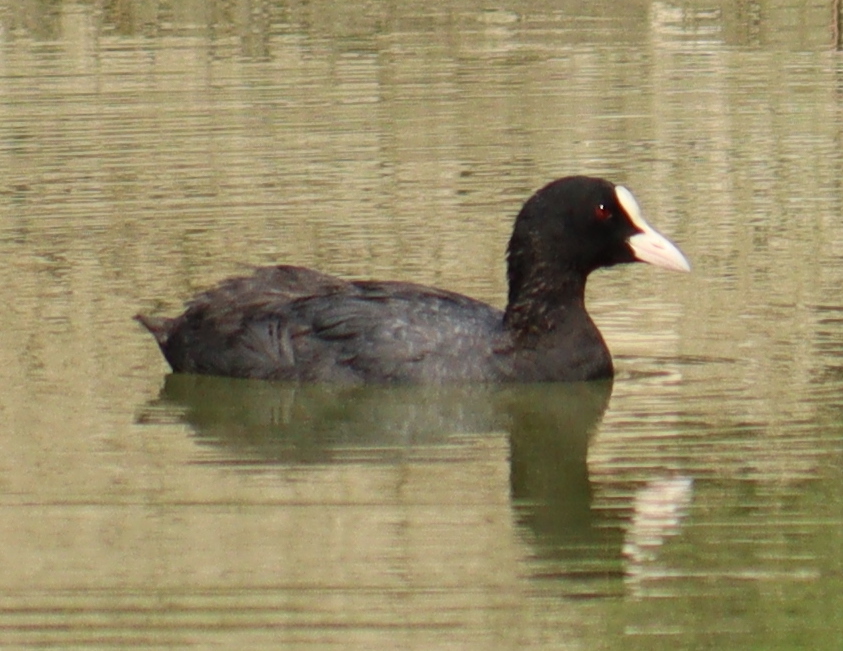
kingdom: Animalia
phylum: Chordata
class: Aves
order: Gruiformes
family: Rallidae
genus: Fulica
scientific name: Fulica atra
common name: Eurasian coot
